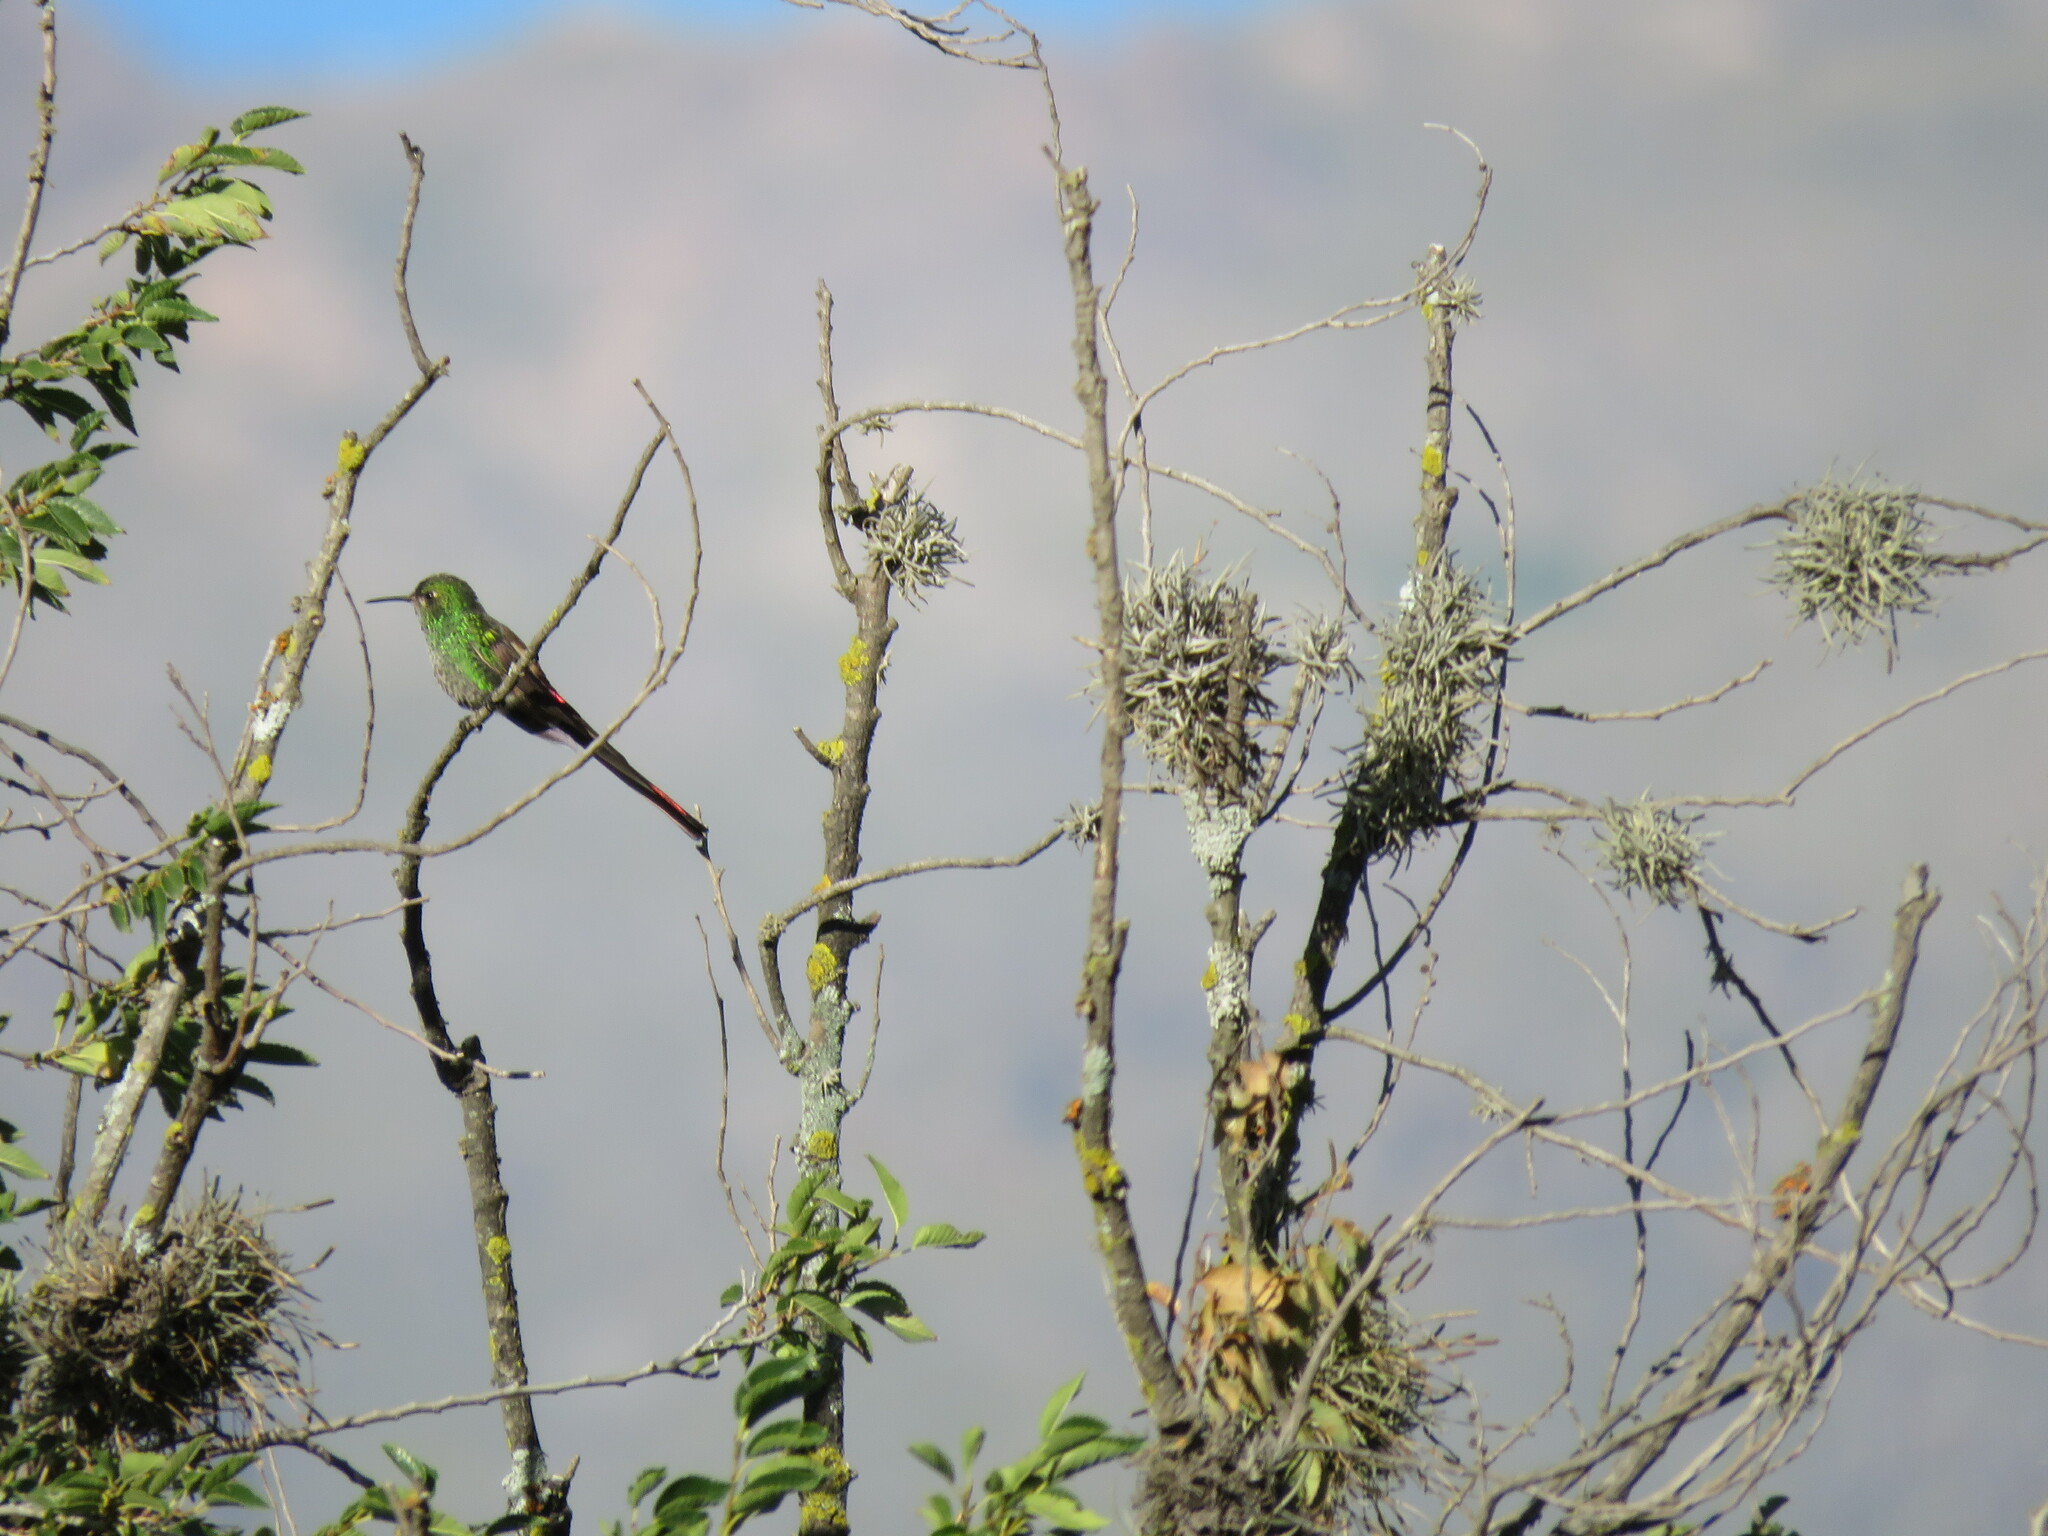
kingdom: Animalia
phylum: Chordata
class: Aves
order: Apodiformes
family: Trochilidae
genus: Sappho
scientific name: Sappho sparganurus
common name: Red-tailed comet
